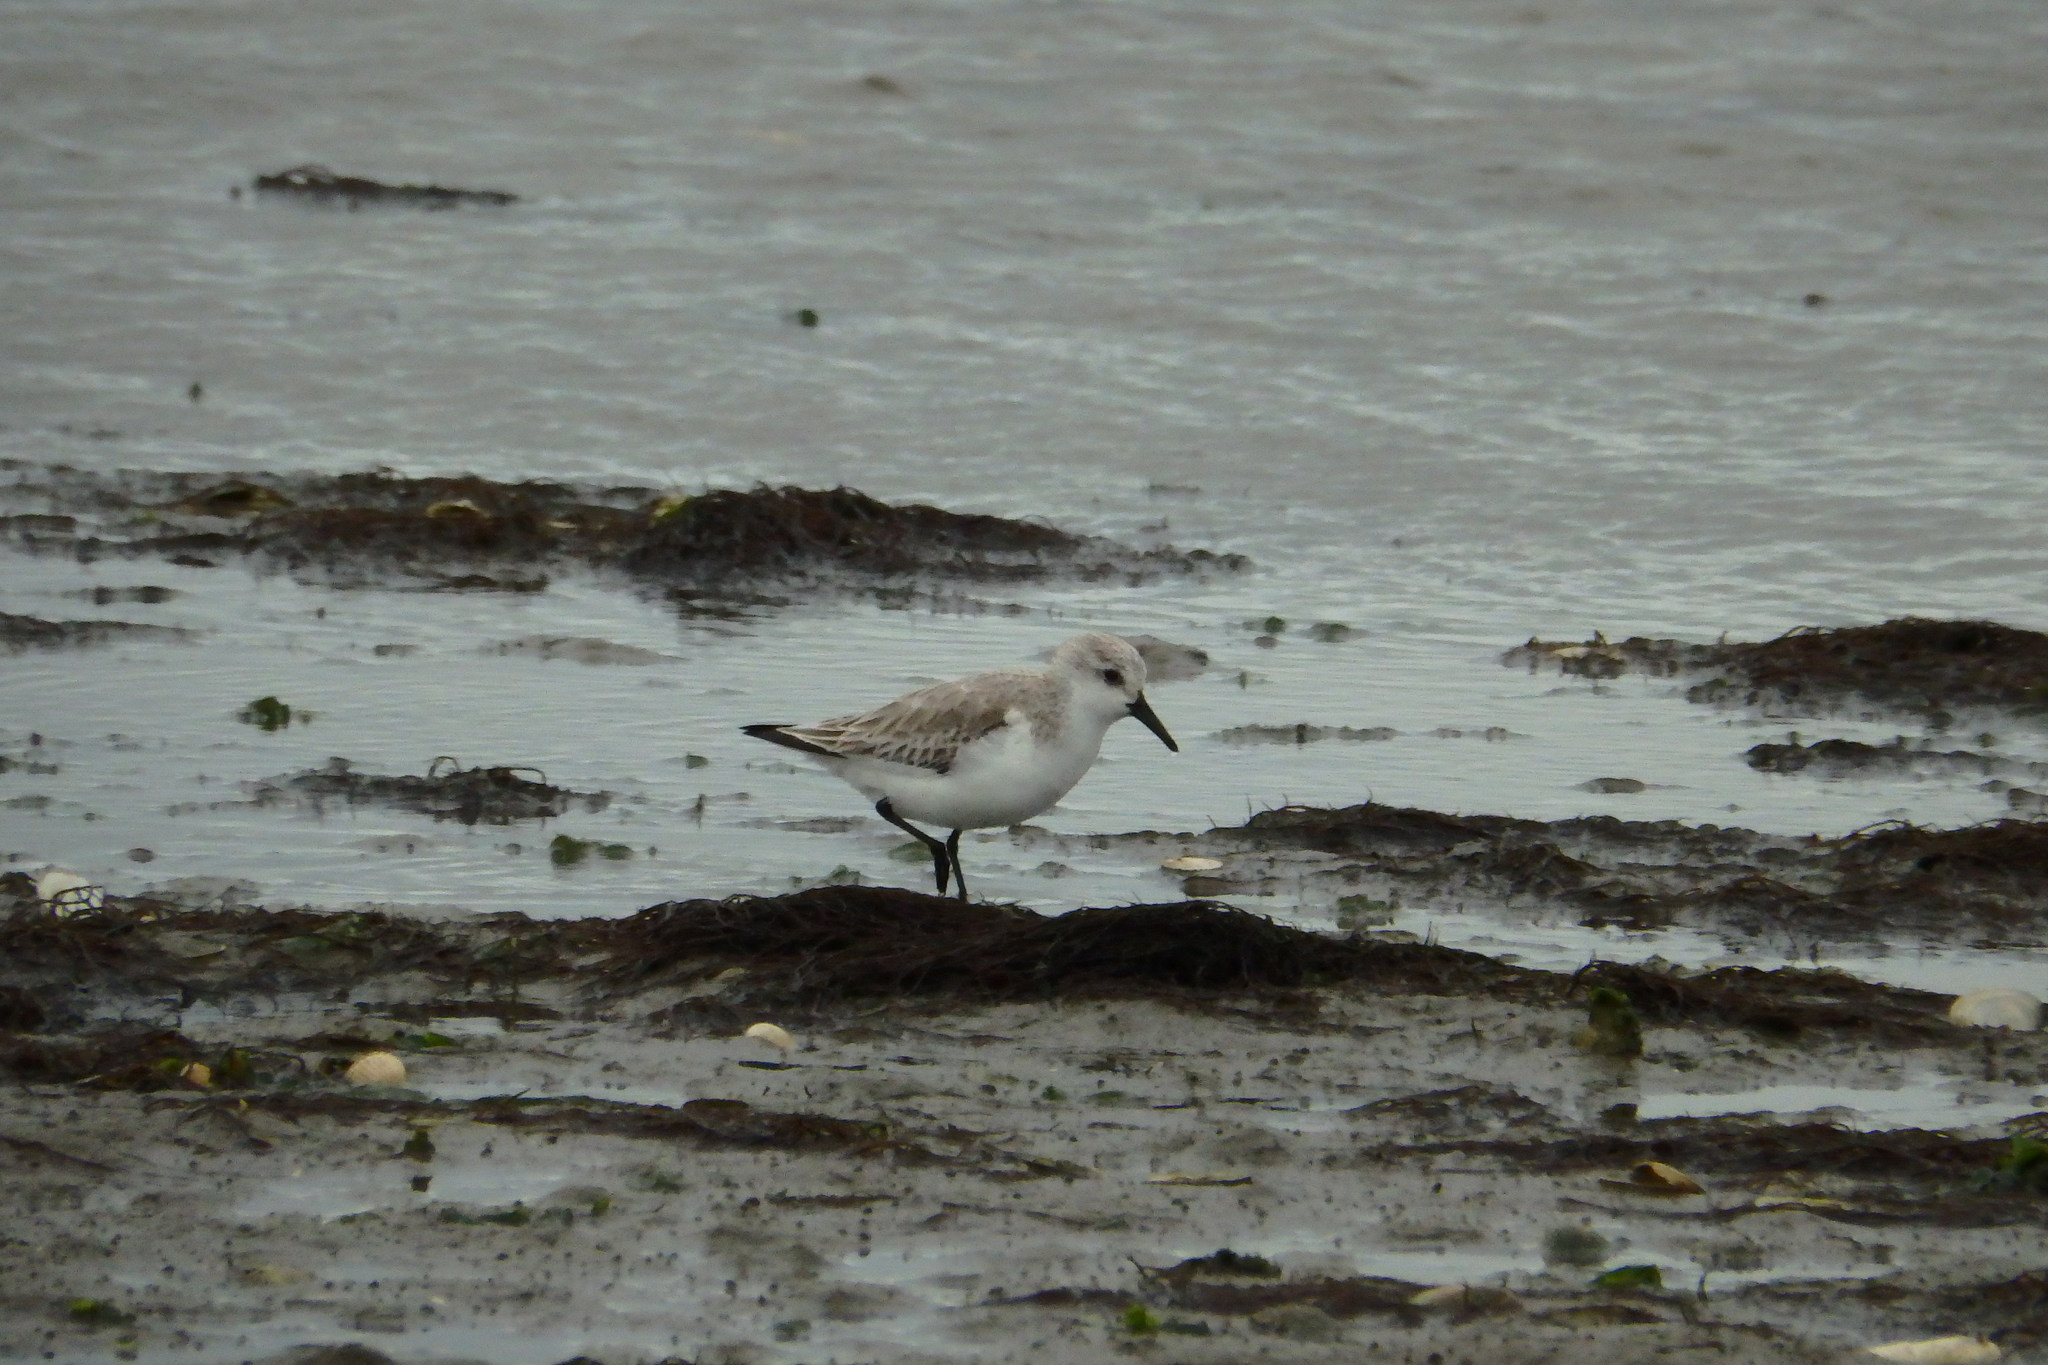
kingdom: Animalia
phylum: Chordata
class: Aves
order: Charadriiformes
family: Scolopacidae
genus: Calidris
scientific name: Calidris alba
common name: Sanderling
